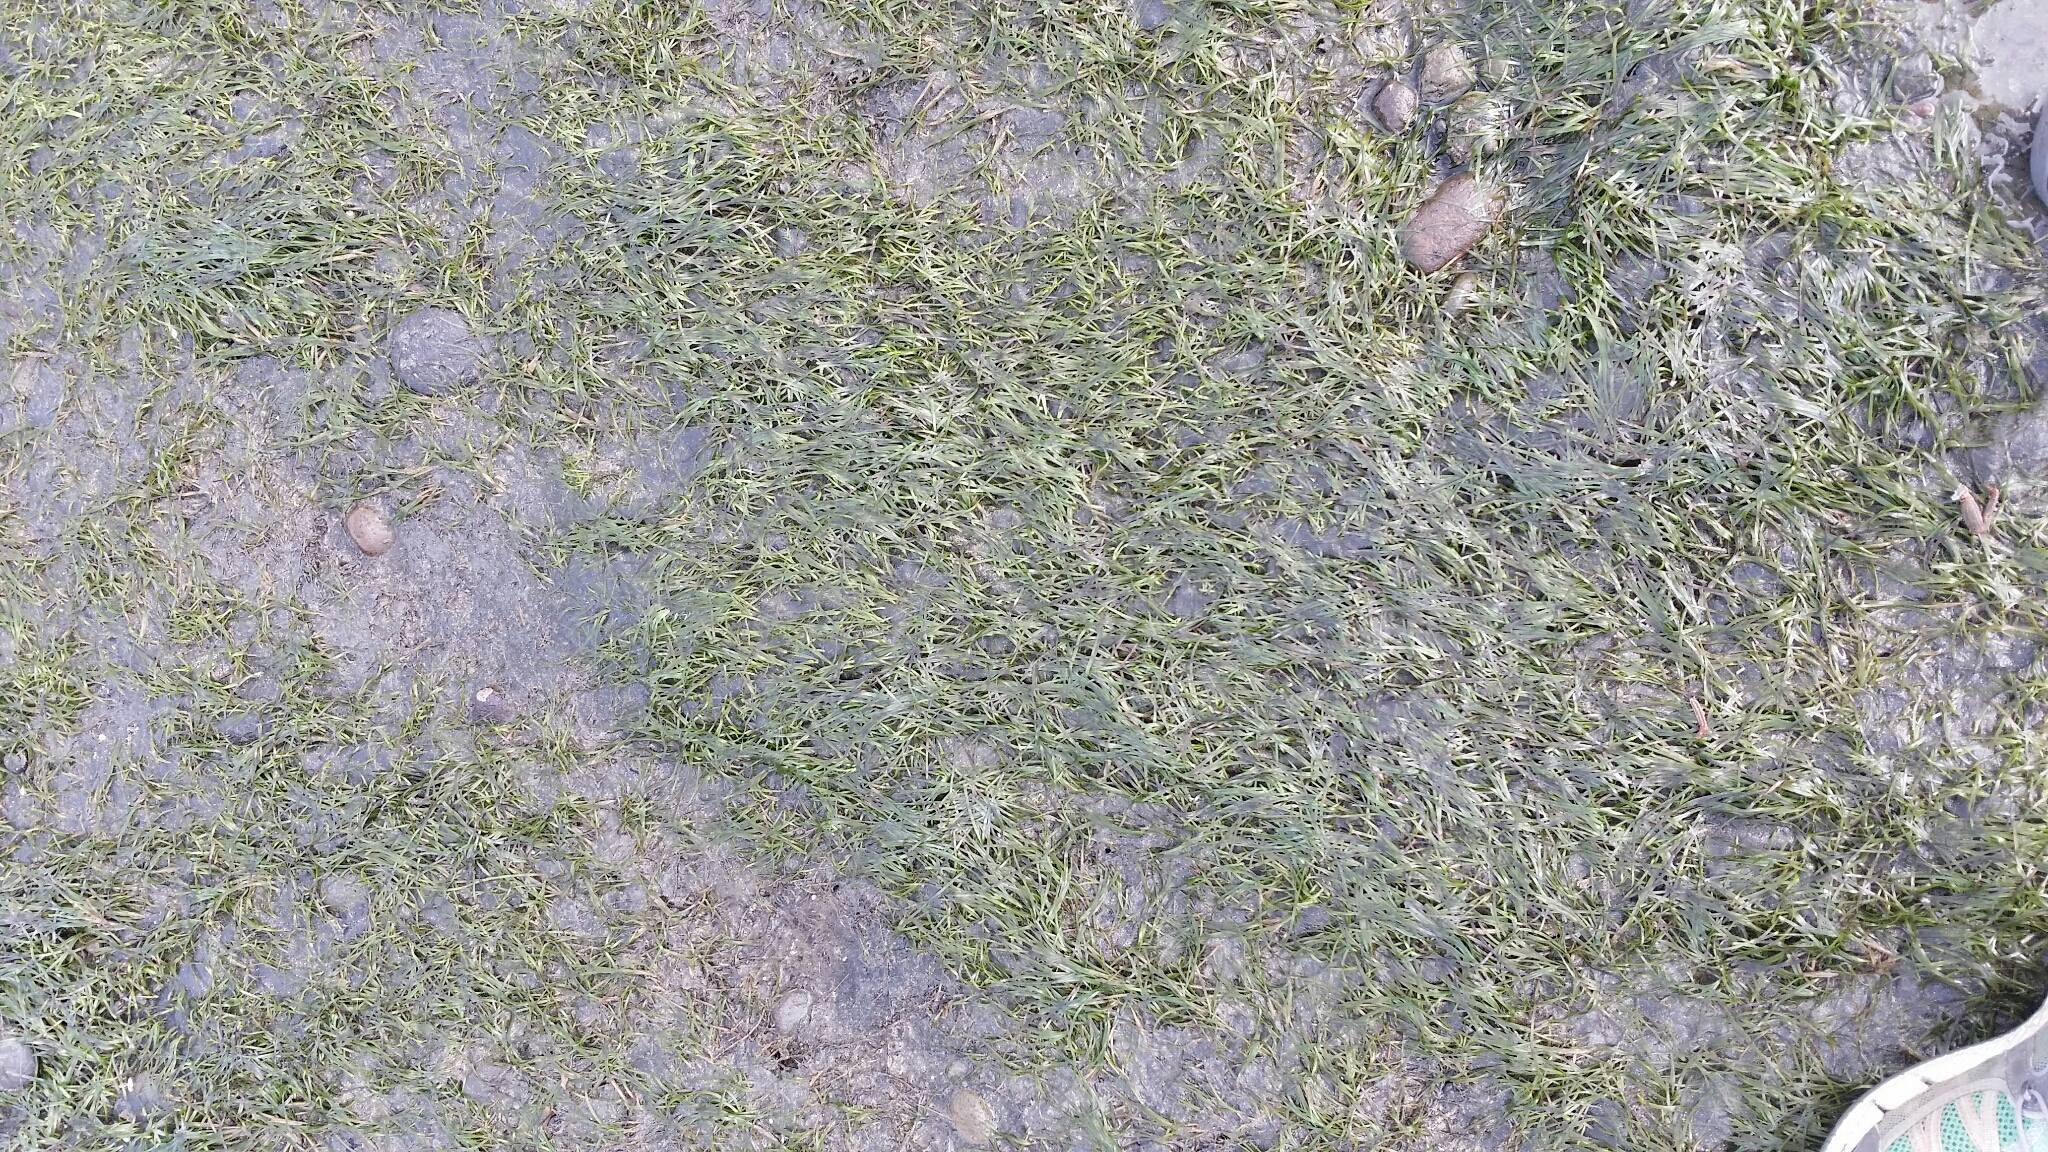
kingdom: Plantae
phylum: Tracheophyta
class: Liliopsida
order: Alismatales
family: Zosteraceae
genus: Zostera
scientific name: Zostera novazelandica
